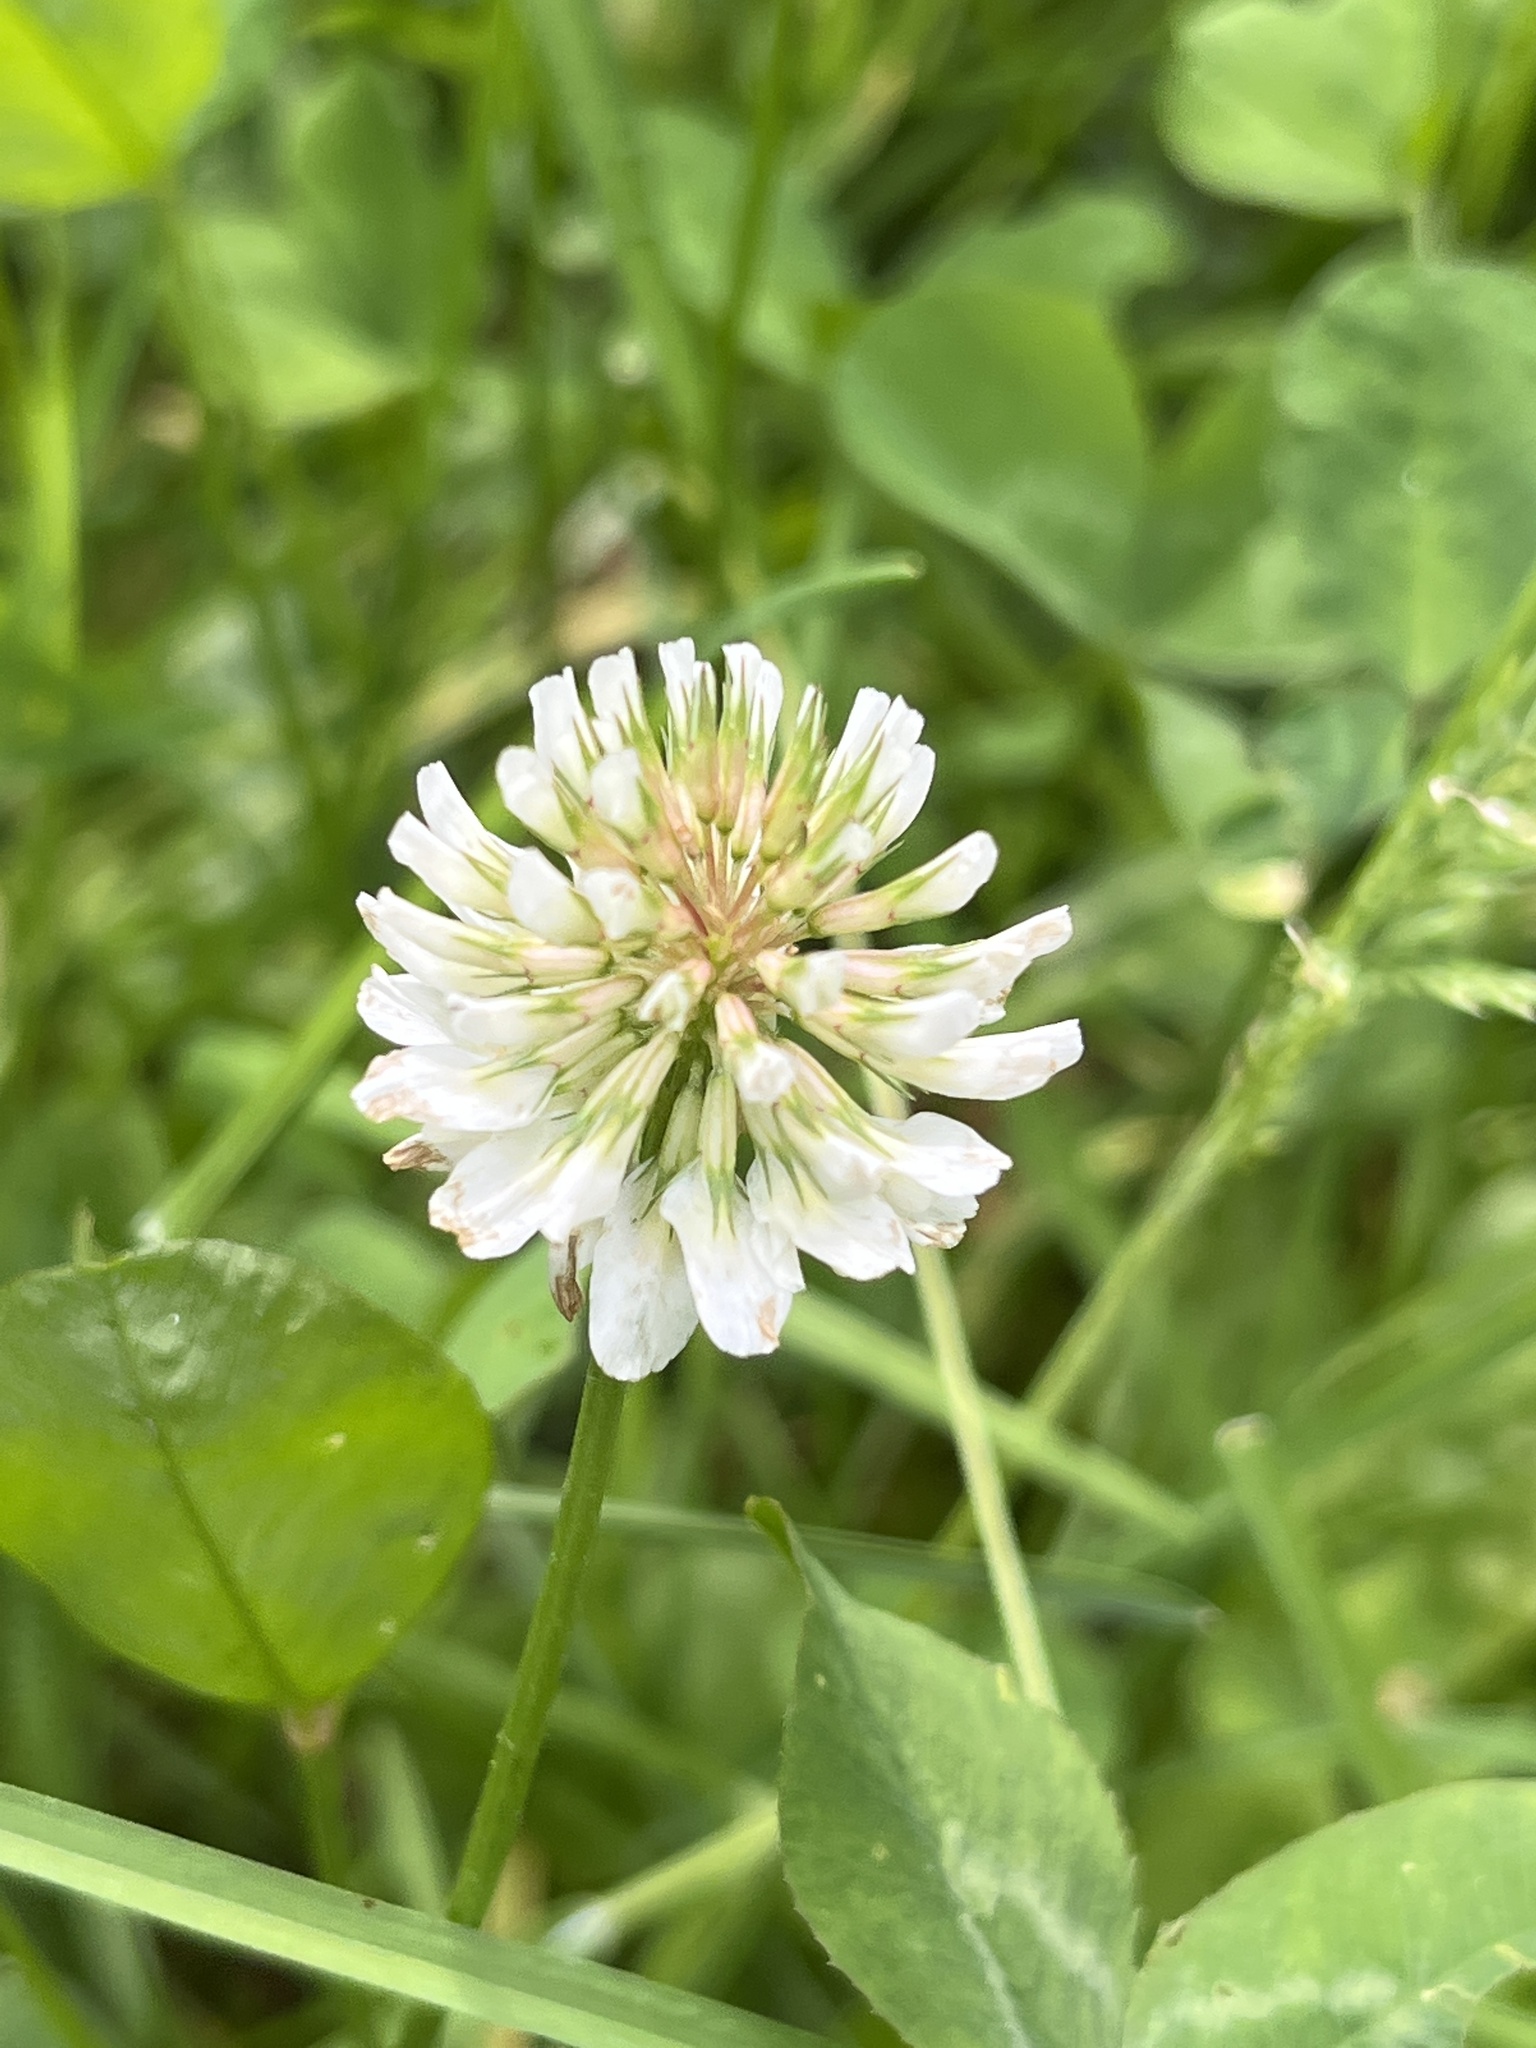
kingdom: Plantae
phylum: Tracheophyta
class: Magnoliopsida
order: Fabales
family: Fabaceae
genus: Trifolium
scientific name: Trifolium repens
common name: White clover
